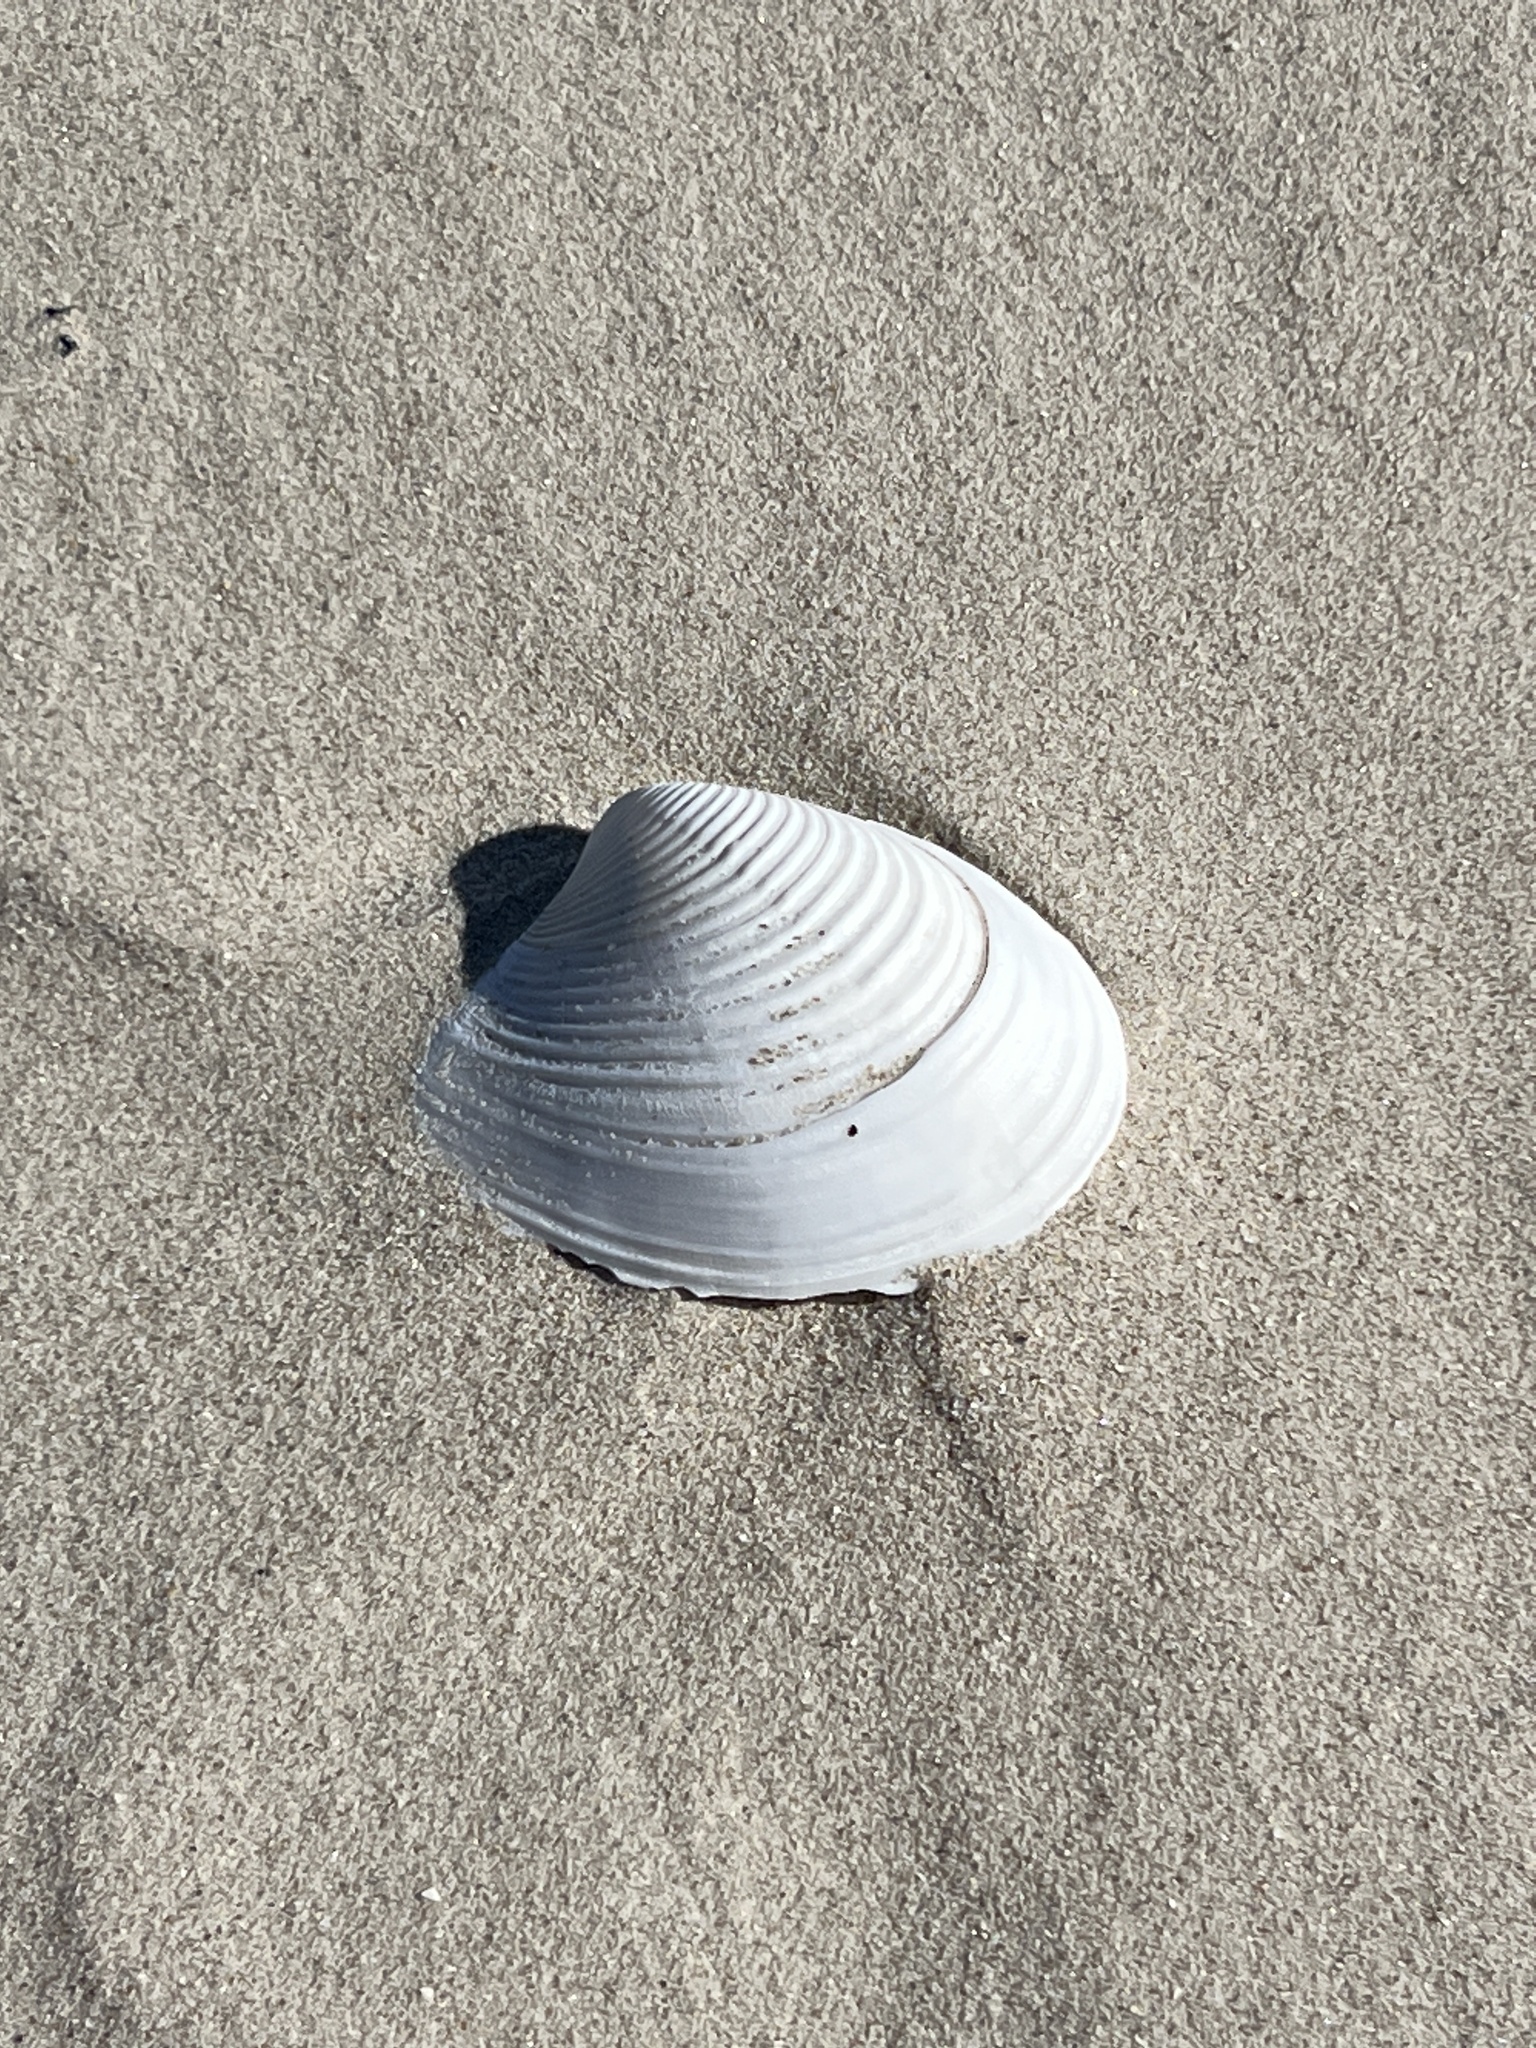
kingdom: Animalia
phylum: Mollusca
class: Bivalvia
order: Venerida
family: Anatinellidae
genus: Raeta
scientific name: Raeta plicatella
